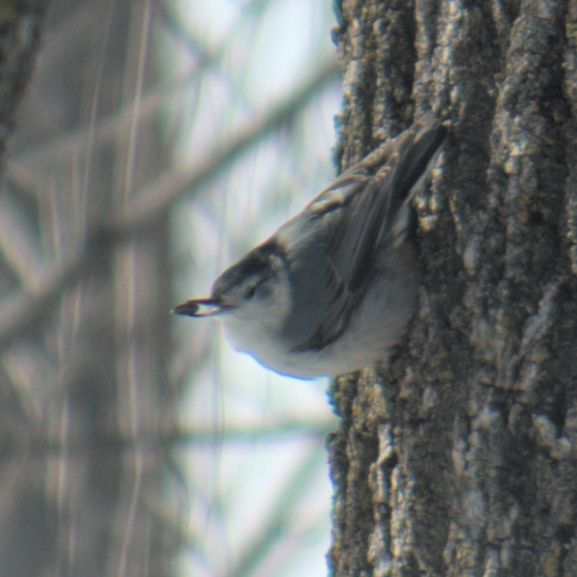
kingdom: Animalia
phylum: Chordata
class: Aves
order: Passeriformes
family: Sittidae
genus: Sitta
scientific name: Sitta carolinensis
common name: White-breasted nuthatch
